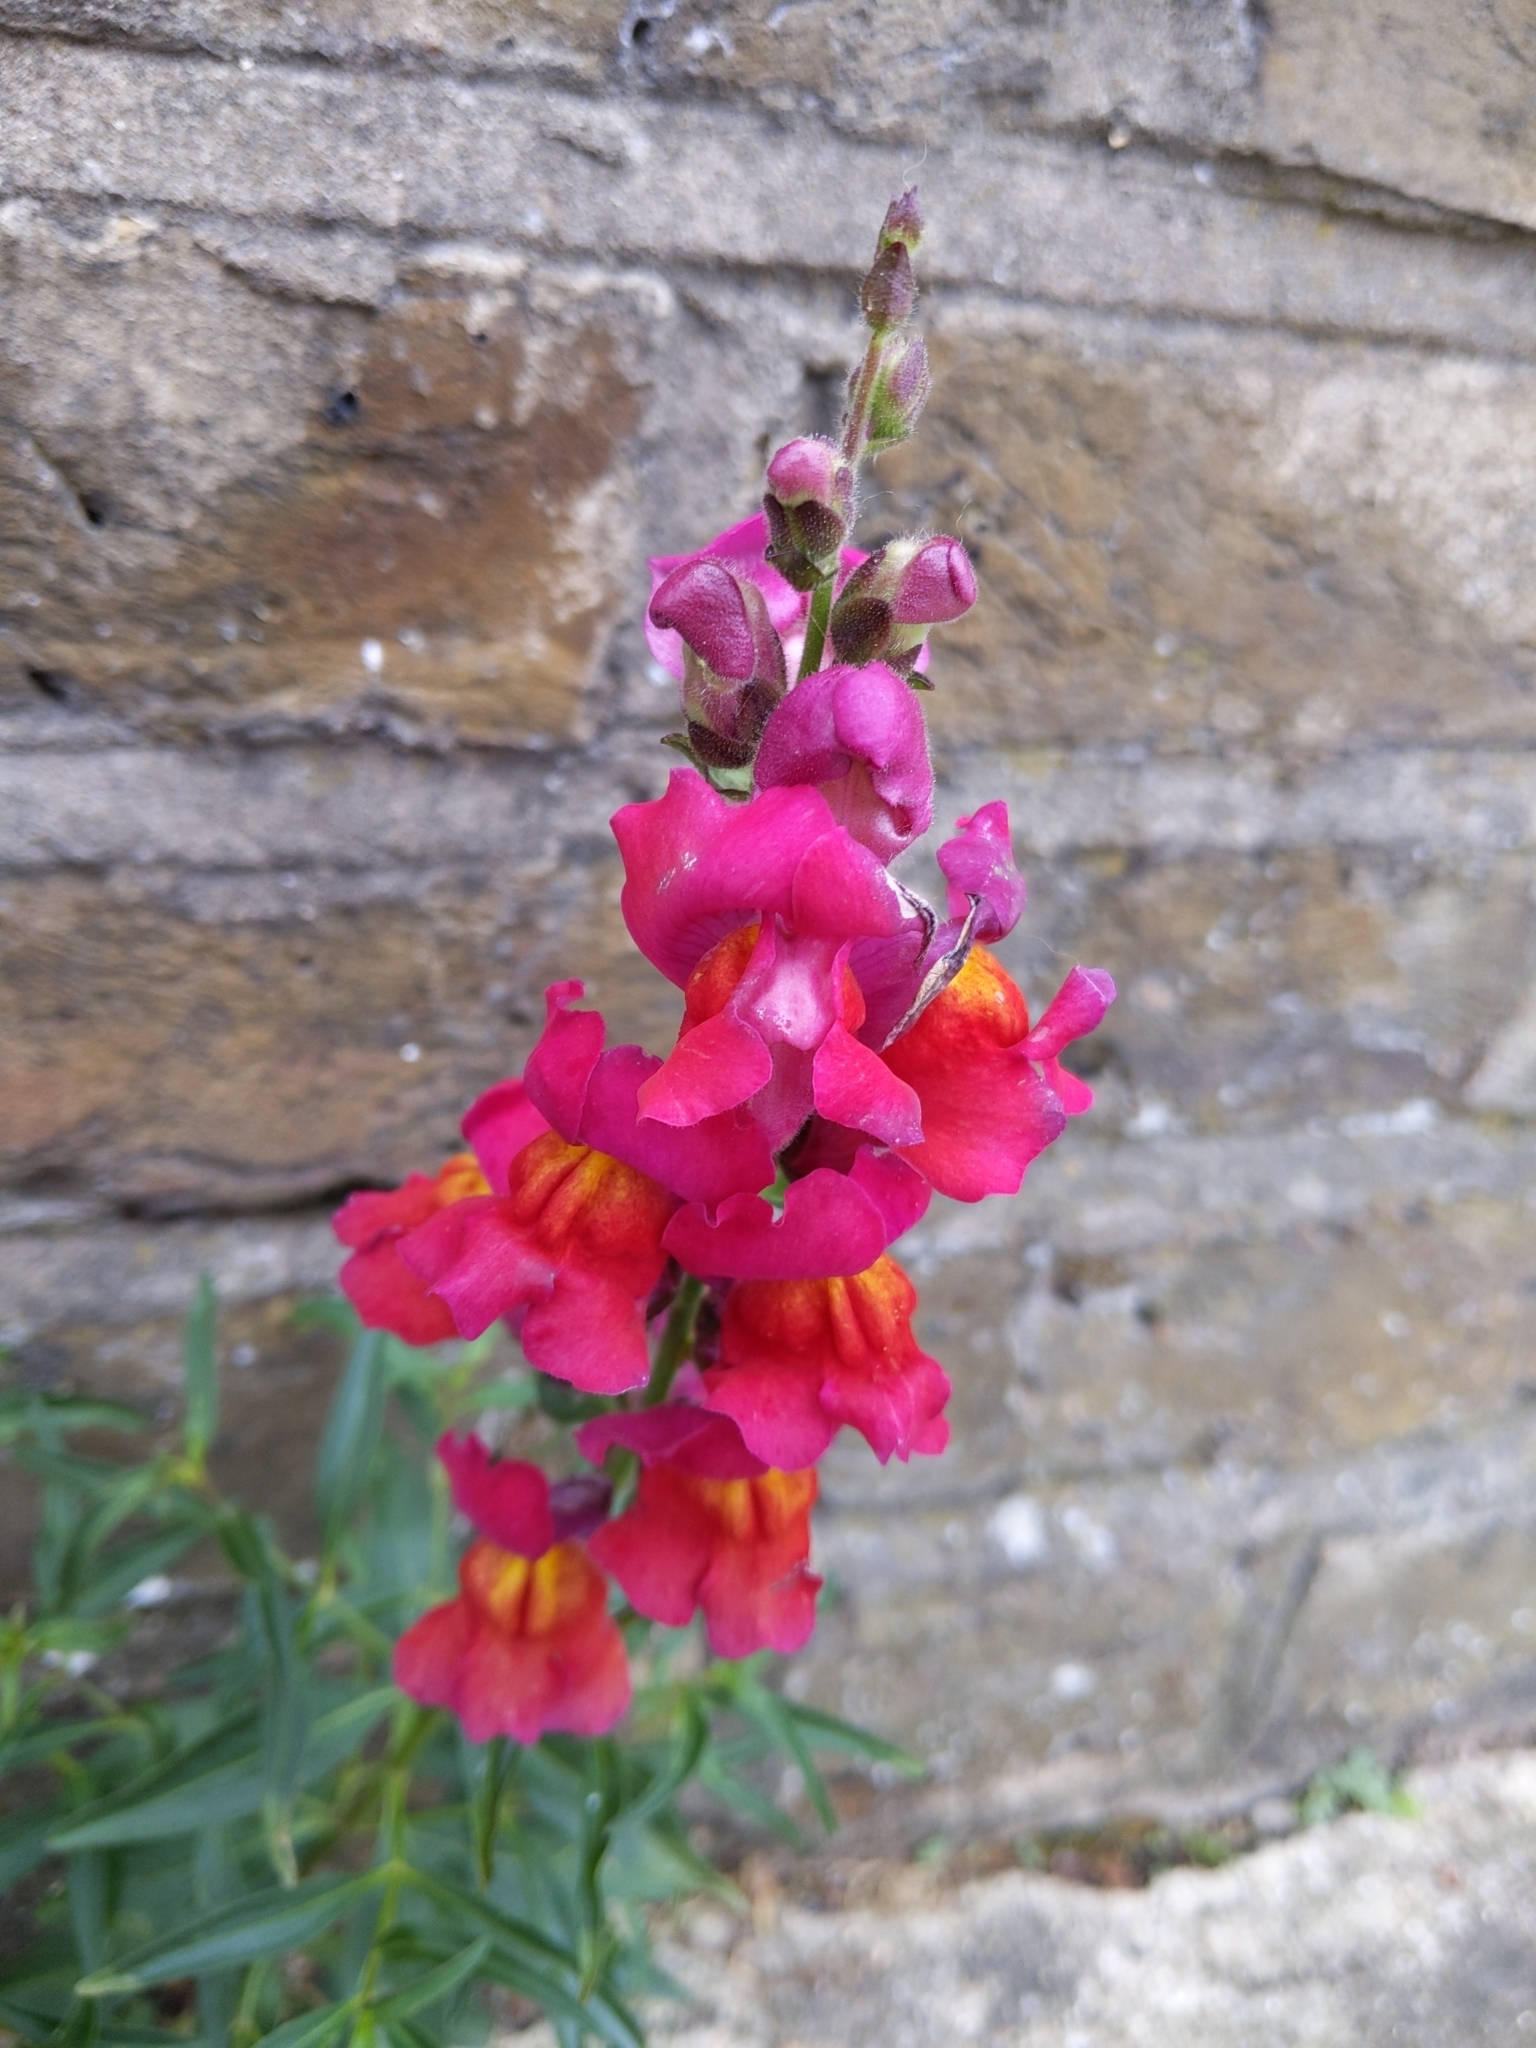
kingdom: Plantae
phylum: Tracheophyta
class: Magnoliopsida
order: Lamiales
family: Plantaginaceae
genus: Antirrhinum
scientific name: Antirrhinum majus
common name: Snapdragon
